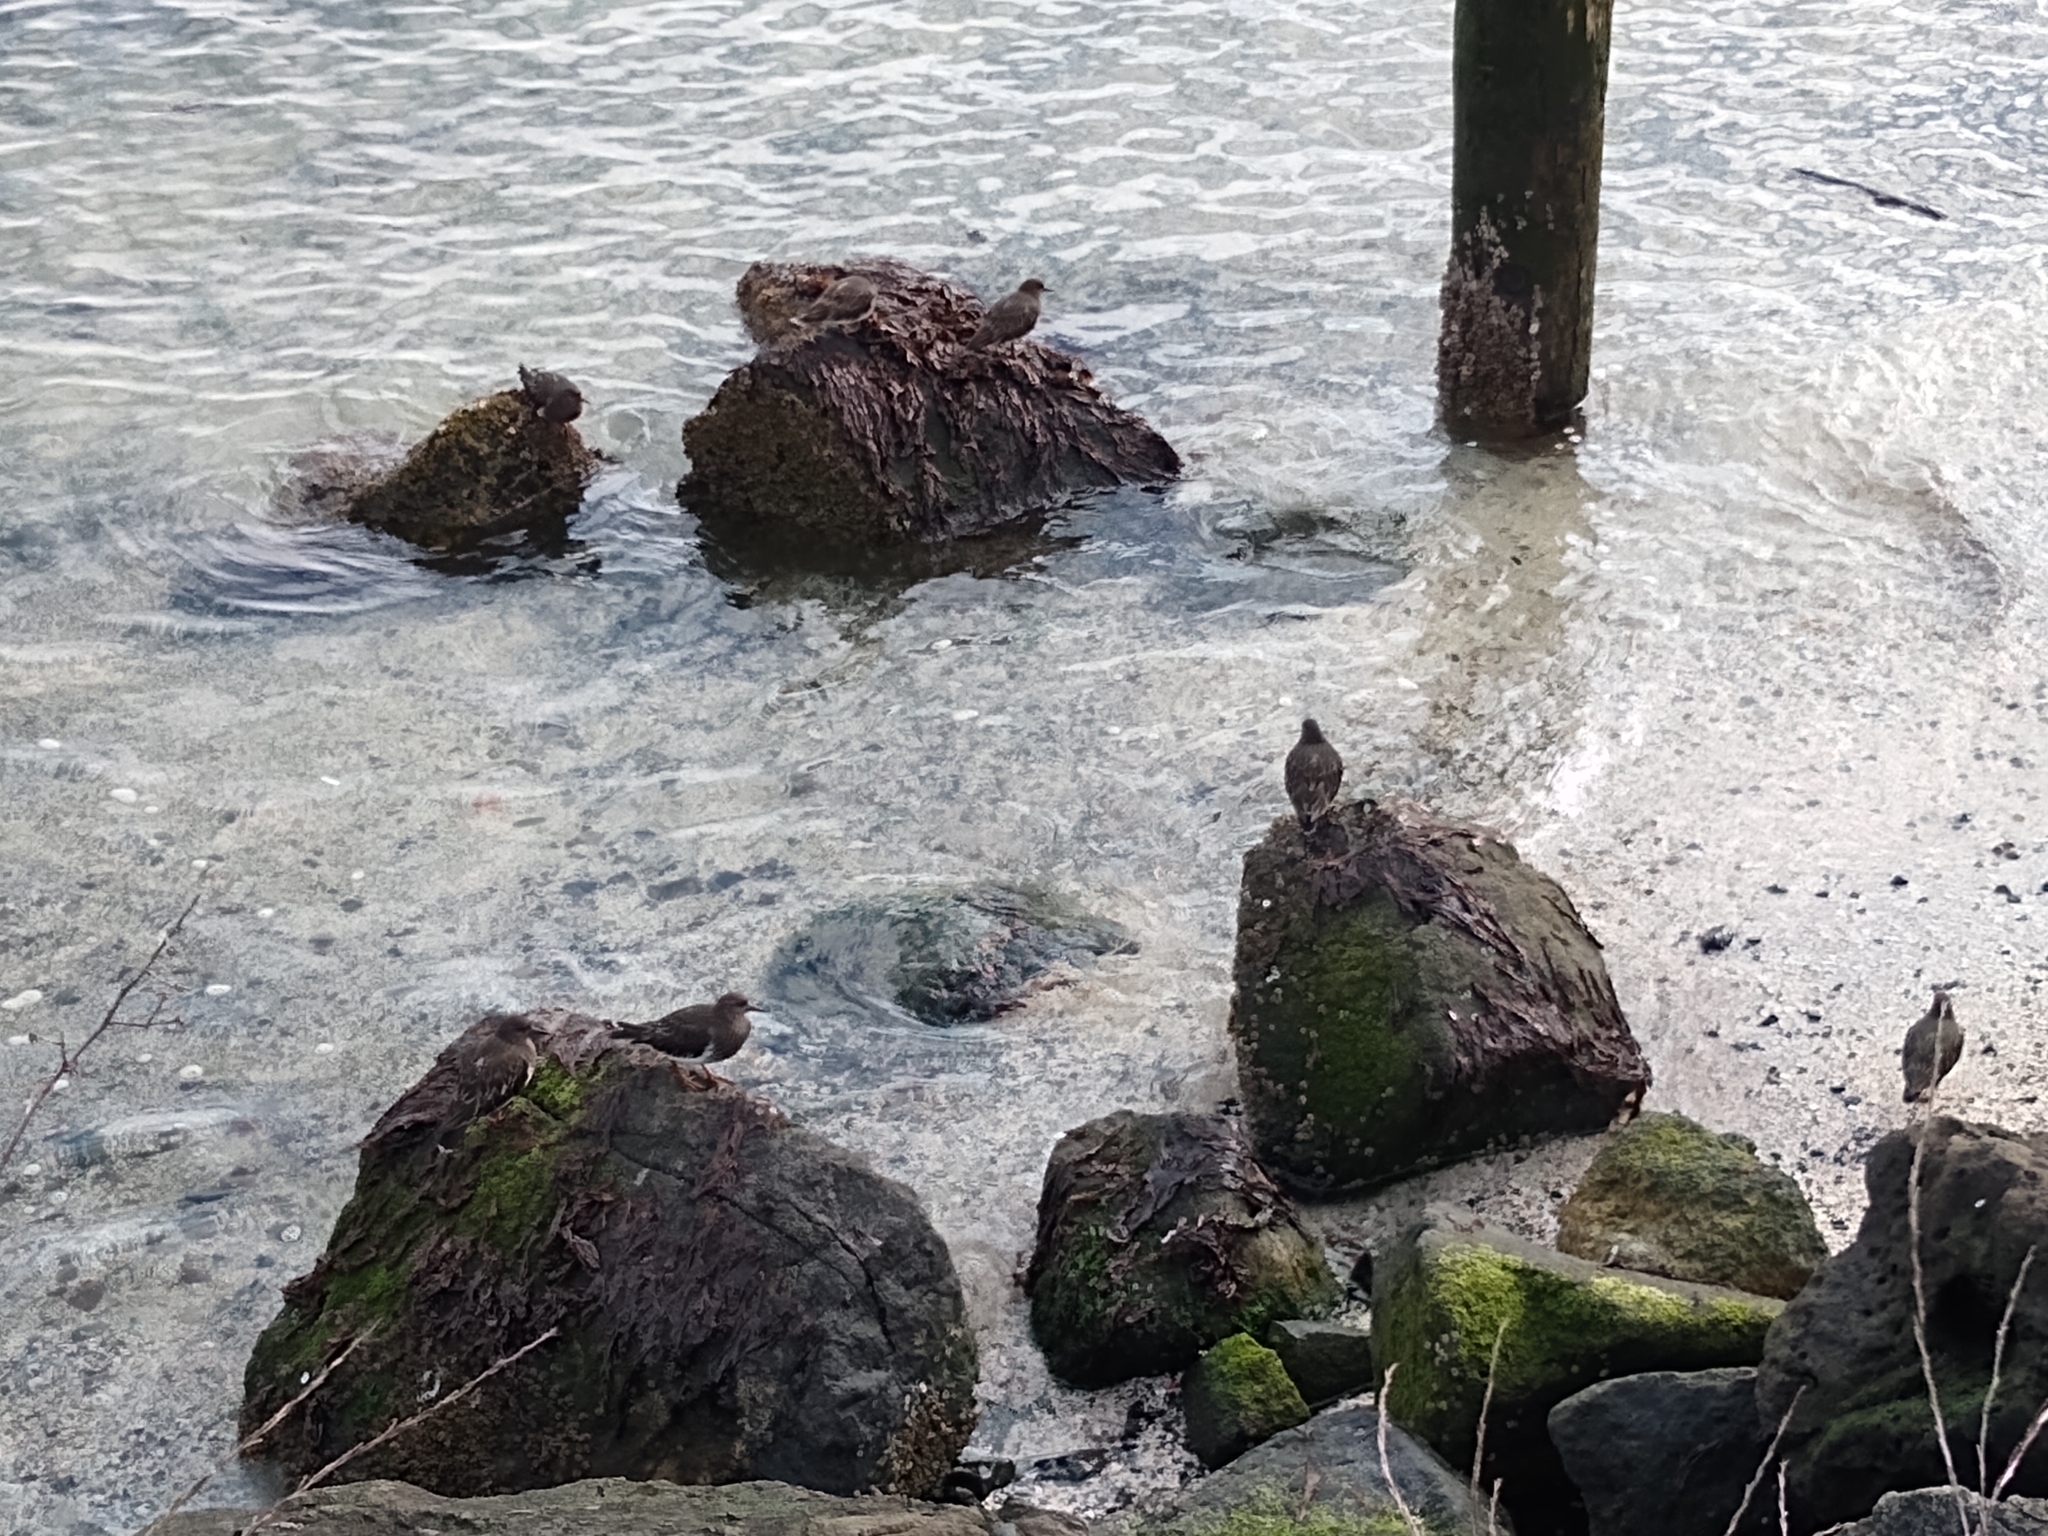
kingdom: Animalia
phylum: Chordata
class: Aves
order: Charadriiformes
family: Scolopacidae
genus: Arenaria
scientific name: Arenaria melanocephala
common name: Black turnstone
